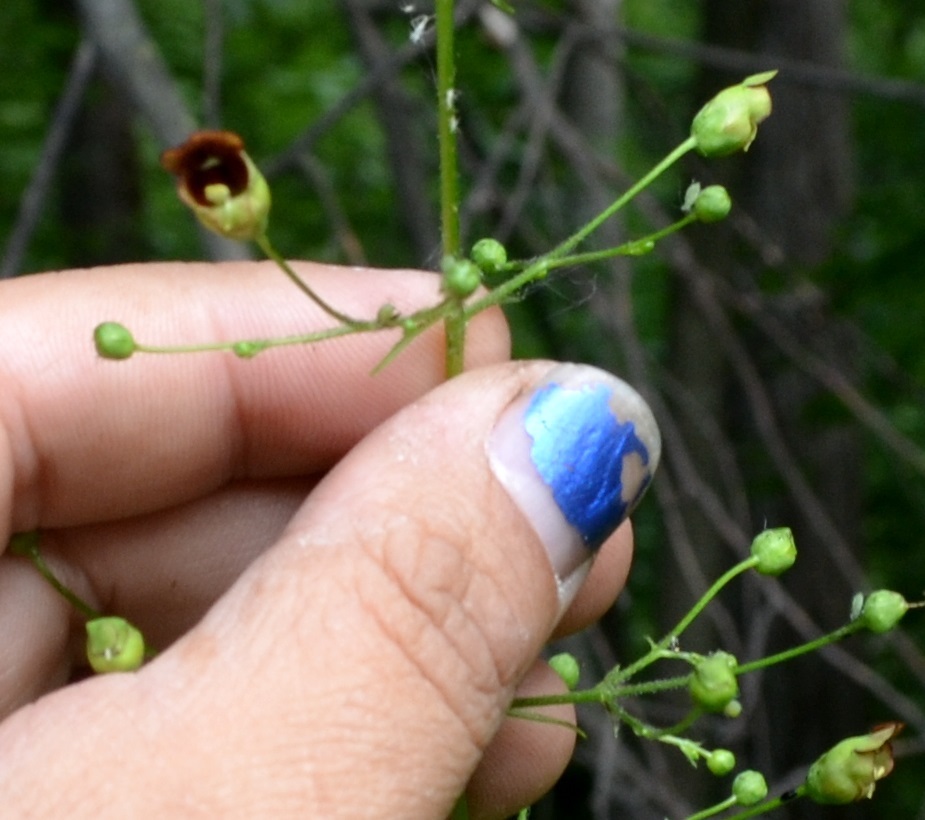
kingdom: Plantae
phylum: Tracheophyta
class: Magnoliopsida
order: Lamiales
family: Scrophulariaceae
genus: Scrophularia
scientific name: Scrophularia marilandica
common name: Eastern figwort
